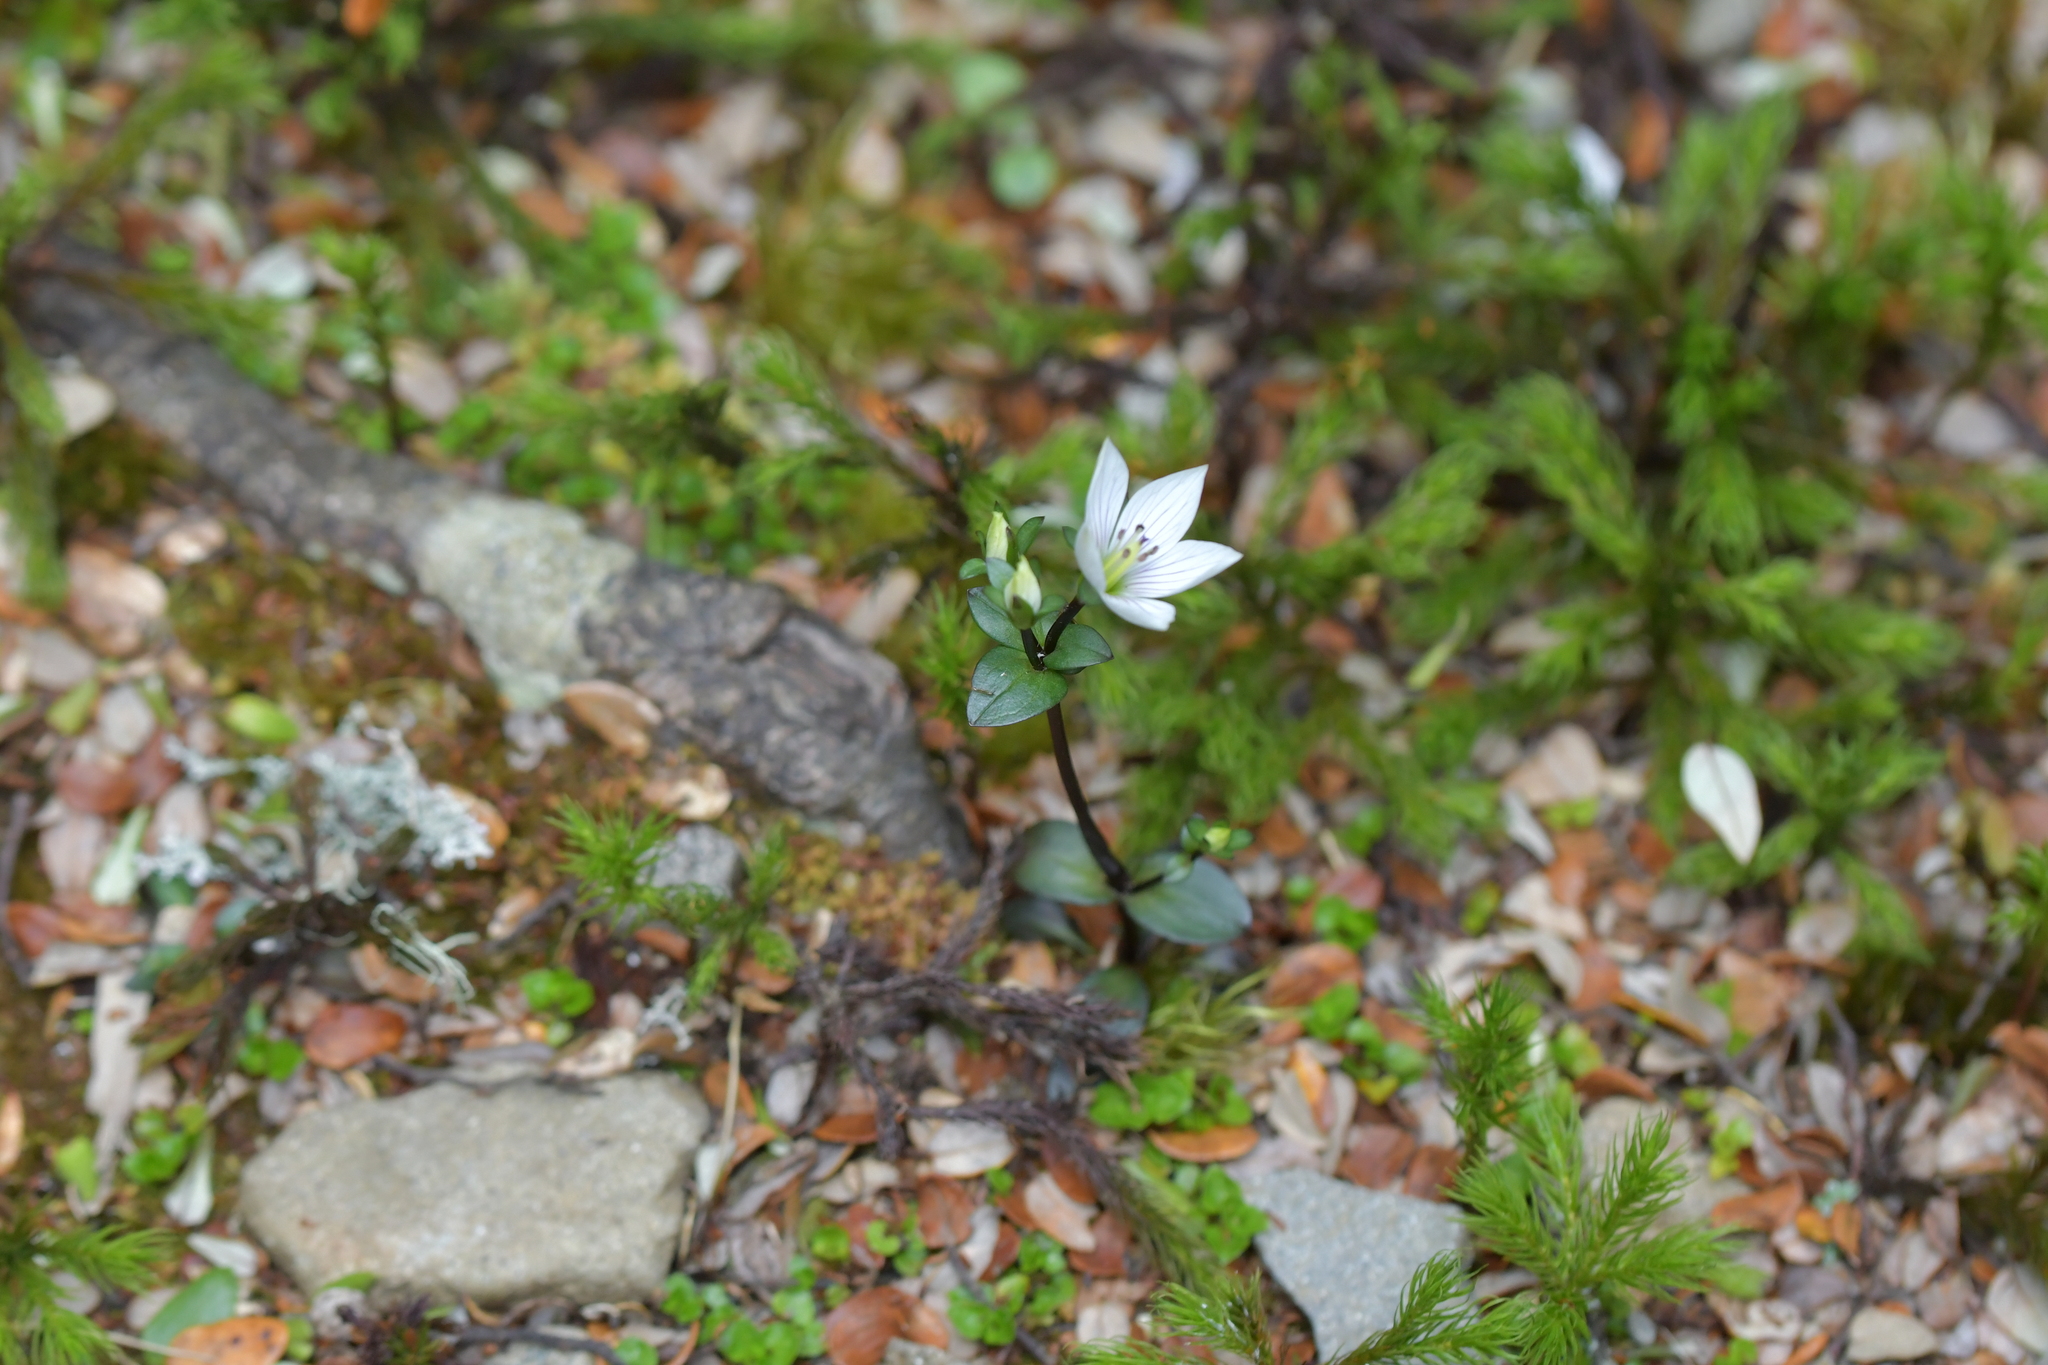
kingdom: Plantae
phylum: Tracheophyta
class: Magnoliopsida
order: Gentianales
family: Gentianaceae
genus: Gentianella
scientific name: Gentianella chathamica
